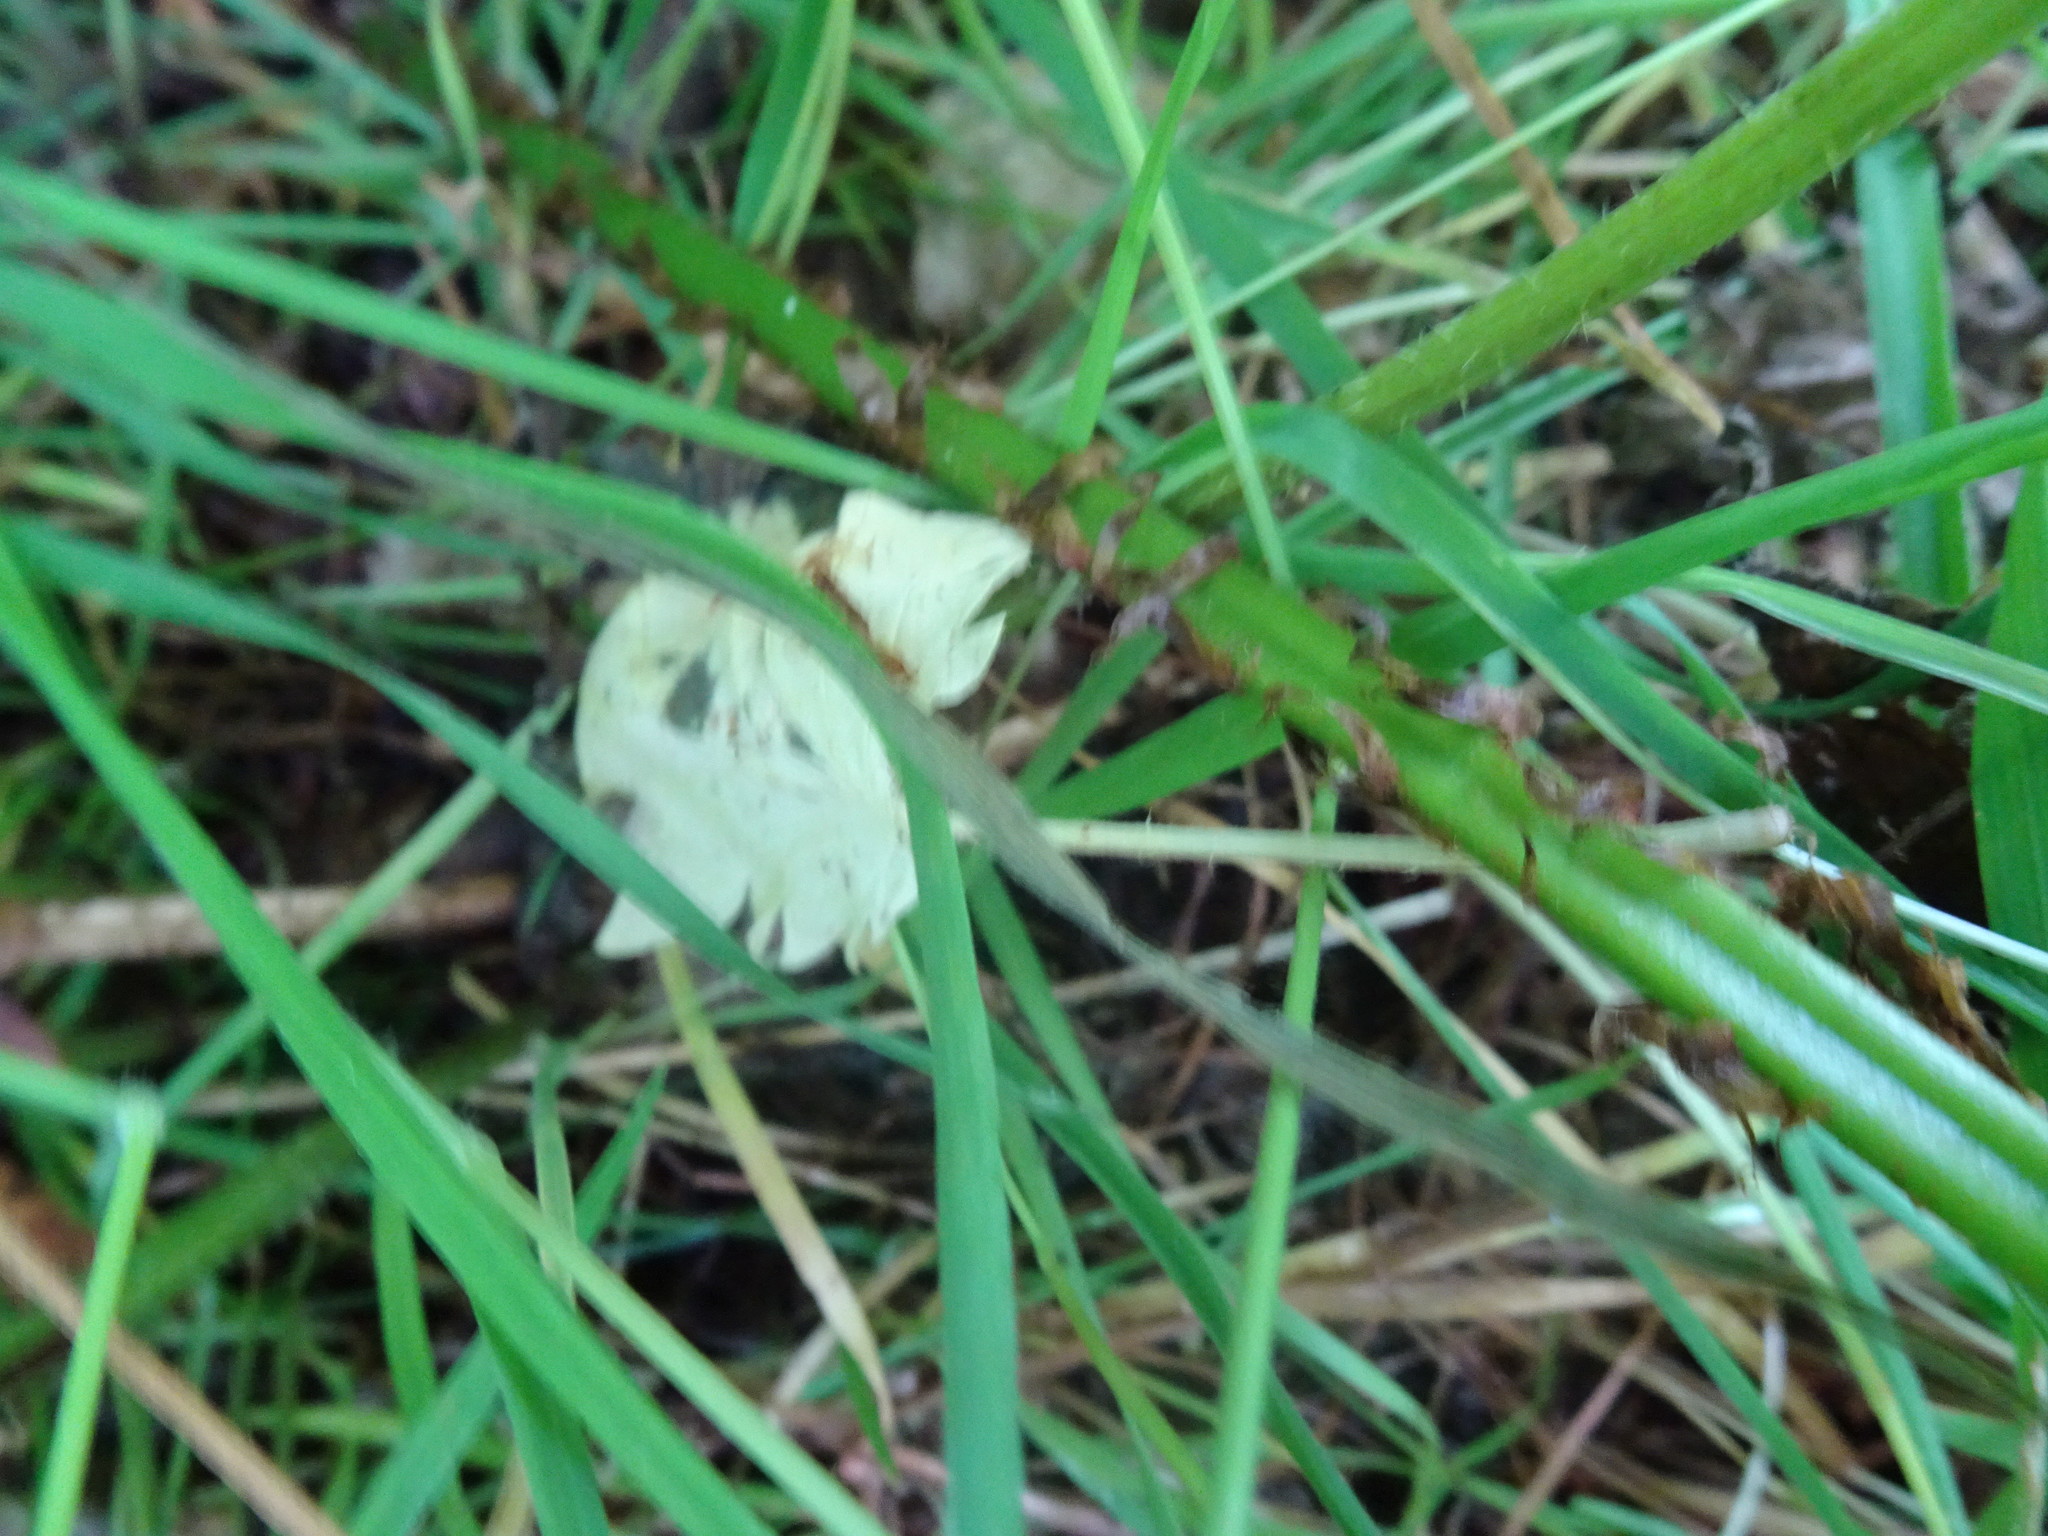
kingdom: Plantae
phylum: Tracheophyta
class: Polypodiopsida
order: Polypodiales
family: Athyriaceae
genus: Athyrium
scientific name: Athyrium filix-femina
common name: Lady fern
